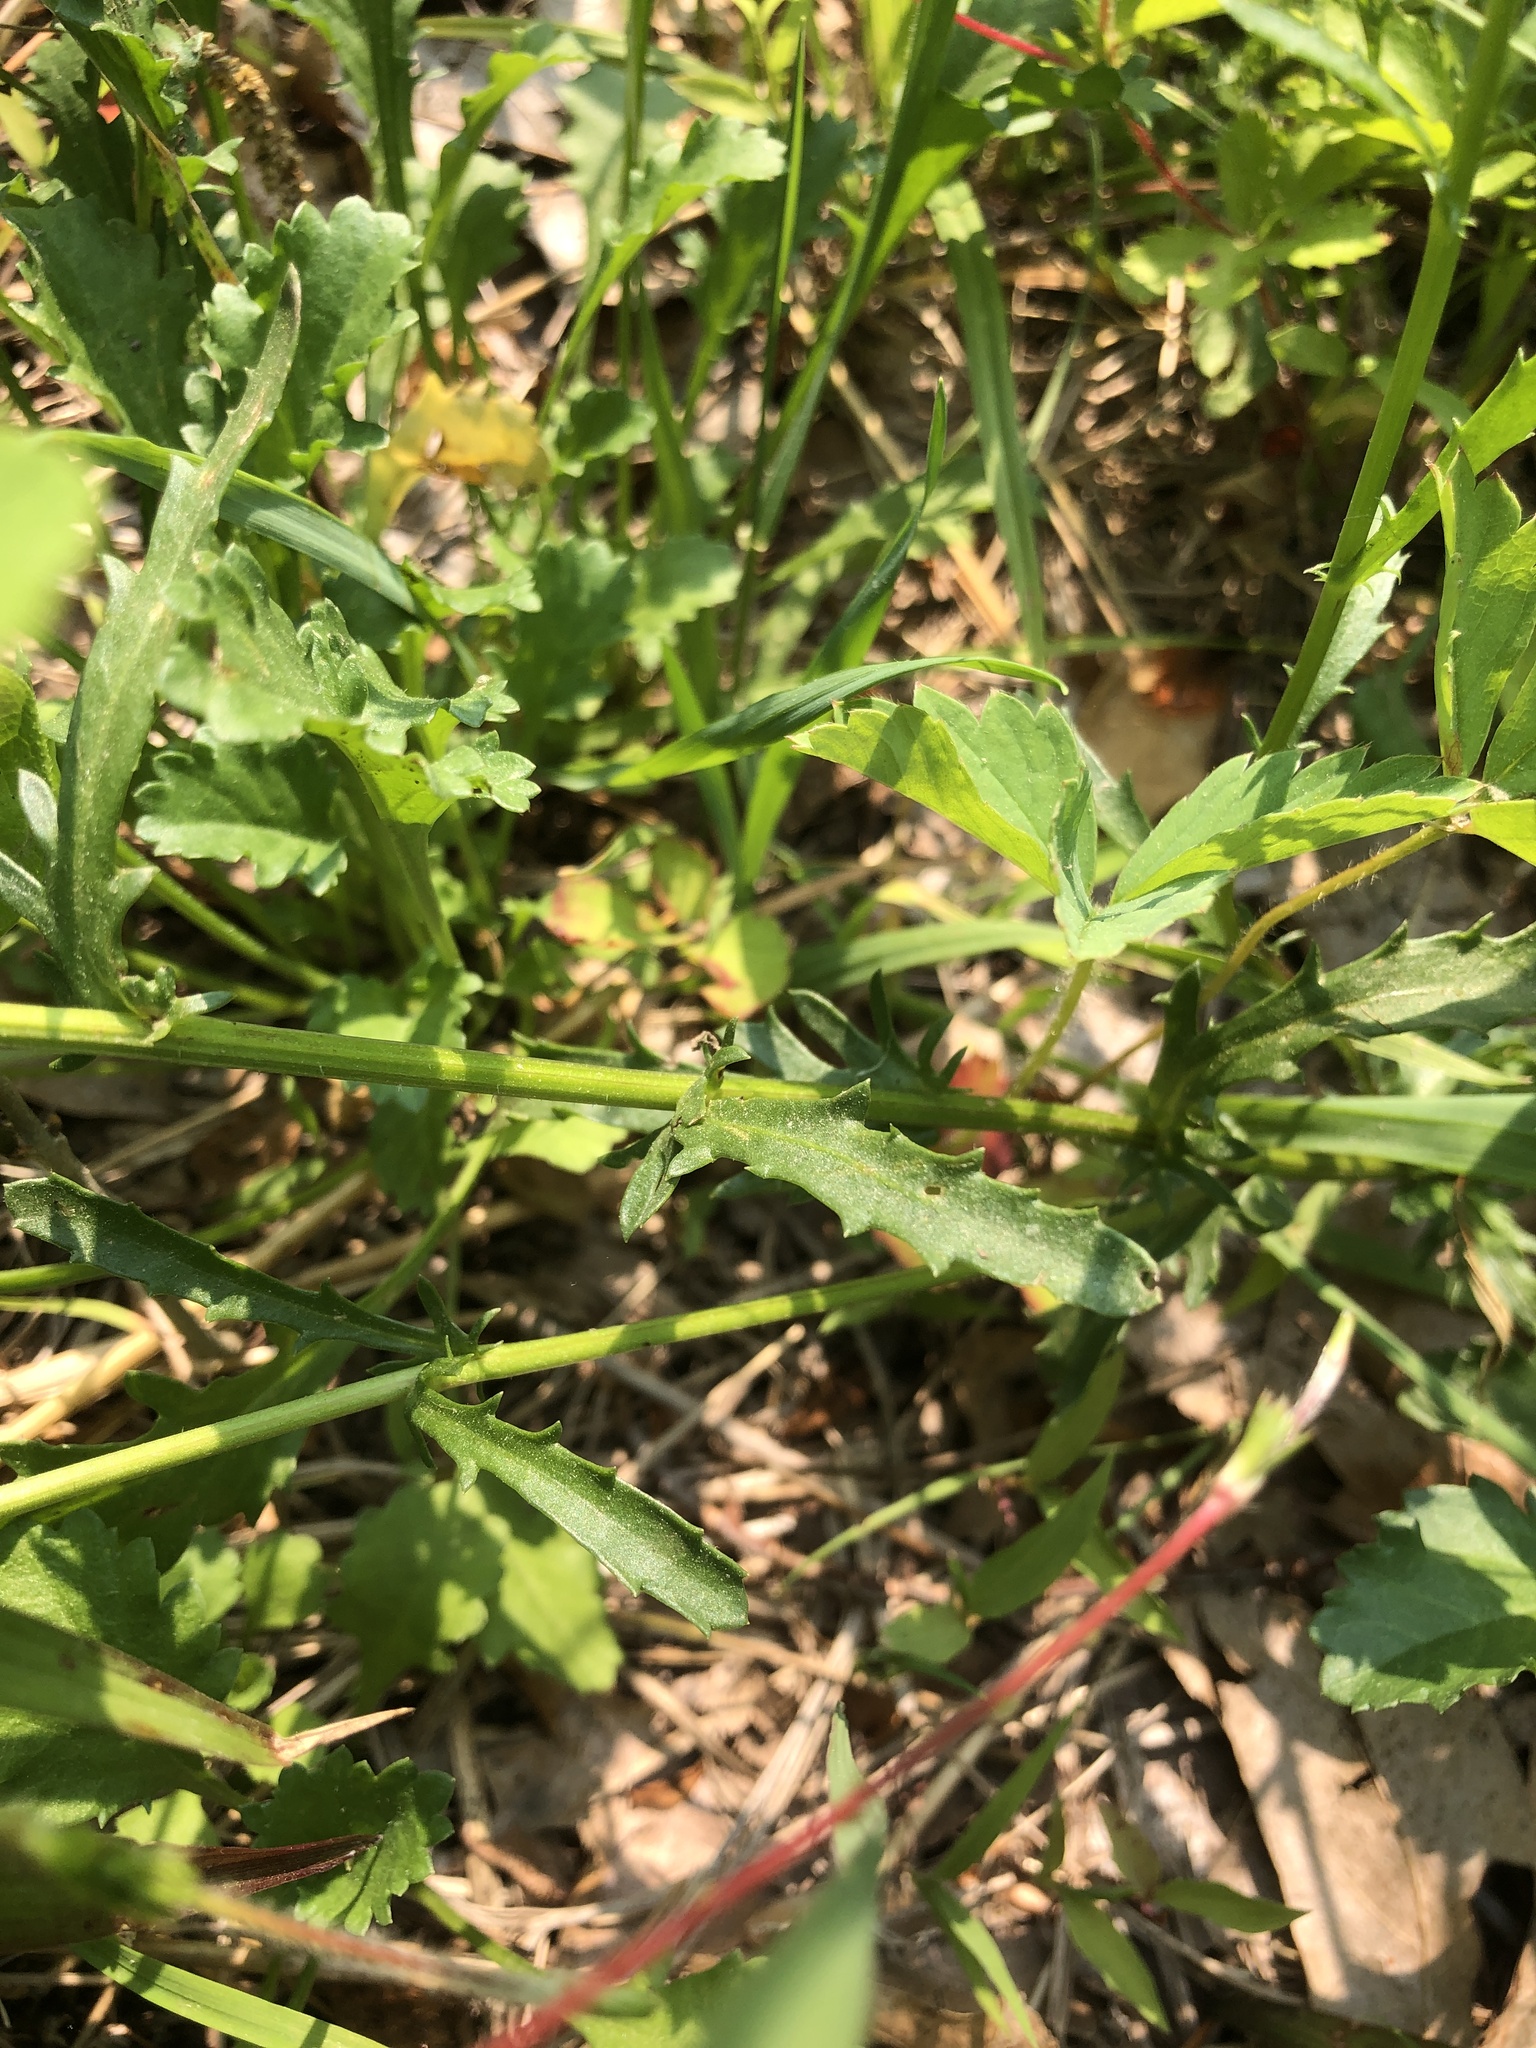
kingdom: Plantae
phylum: Tracheophyta
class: Magnoliopsida
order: Asterales
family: Asteraceae
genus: Leucanthemum
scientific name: Leucanthemum vulgare
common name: Oxeye daisy
